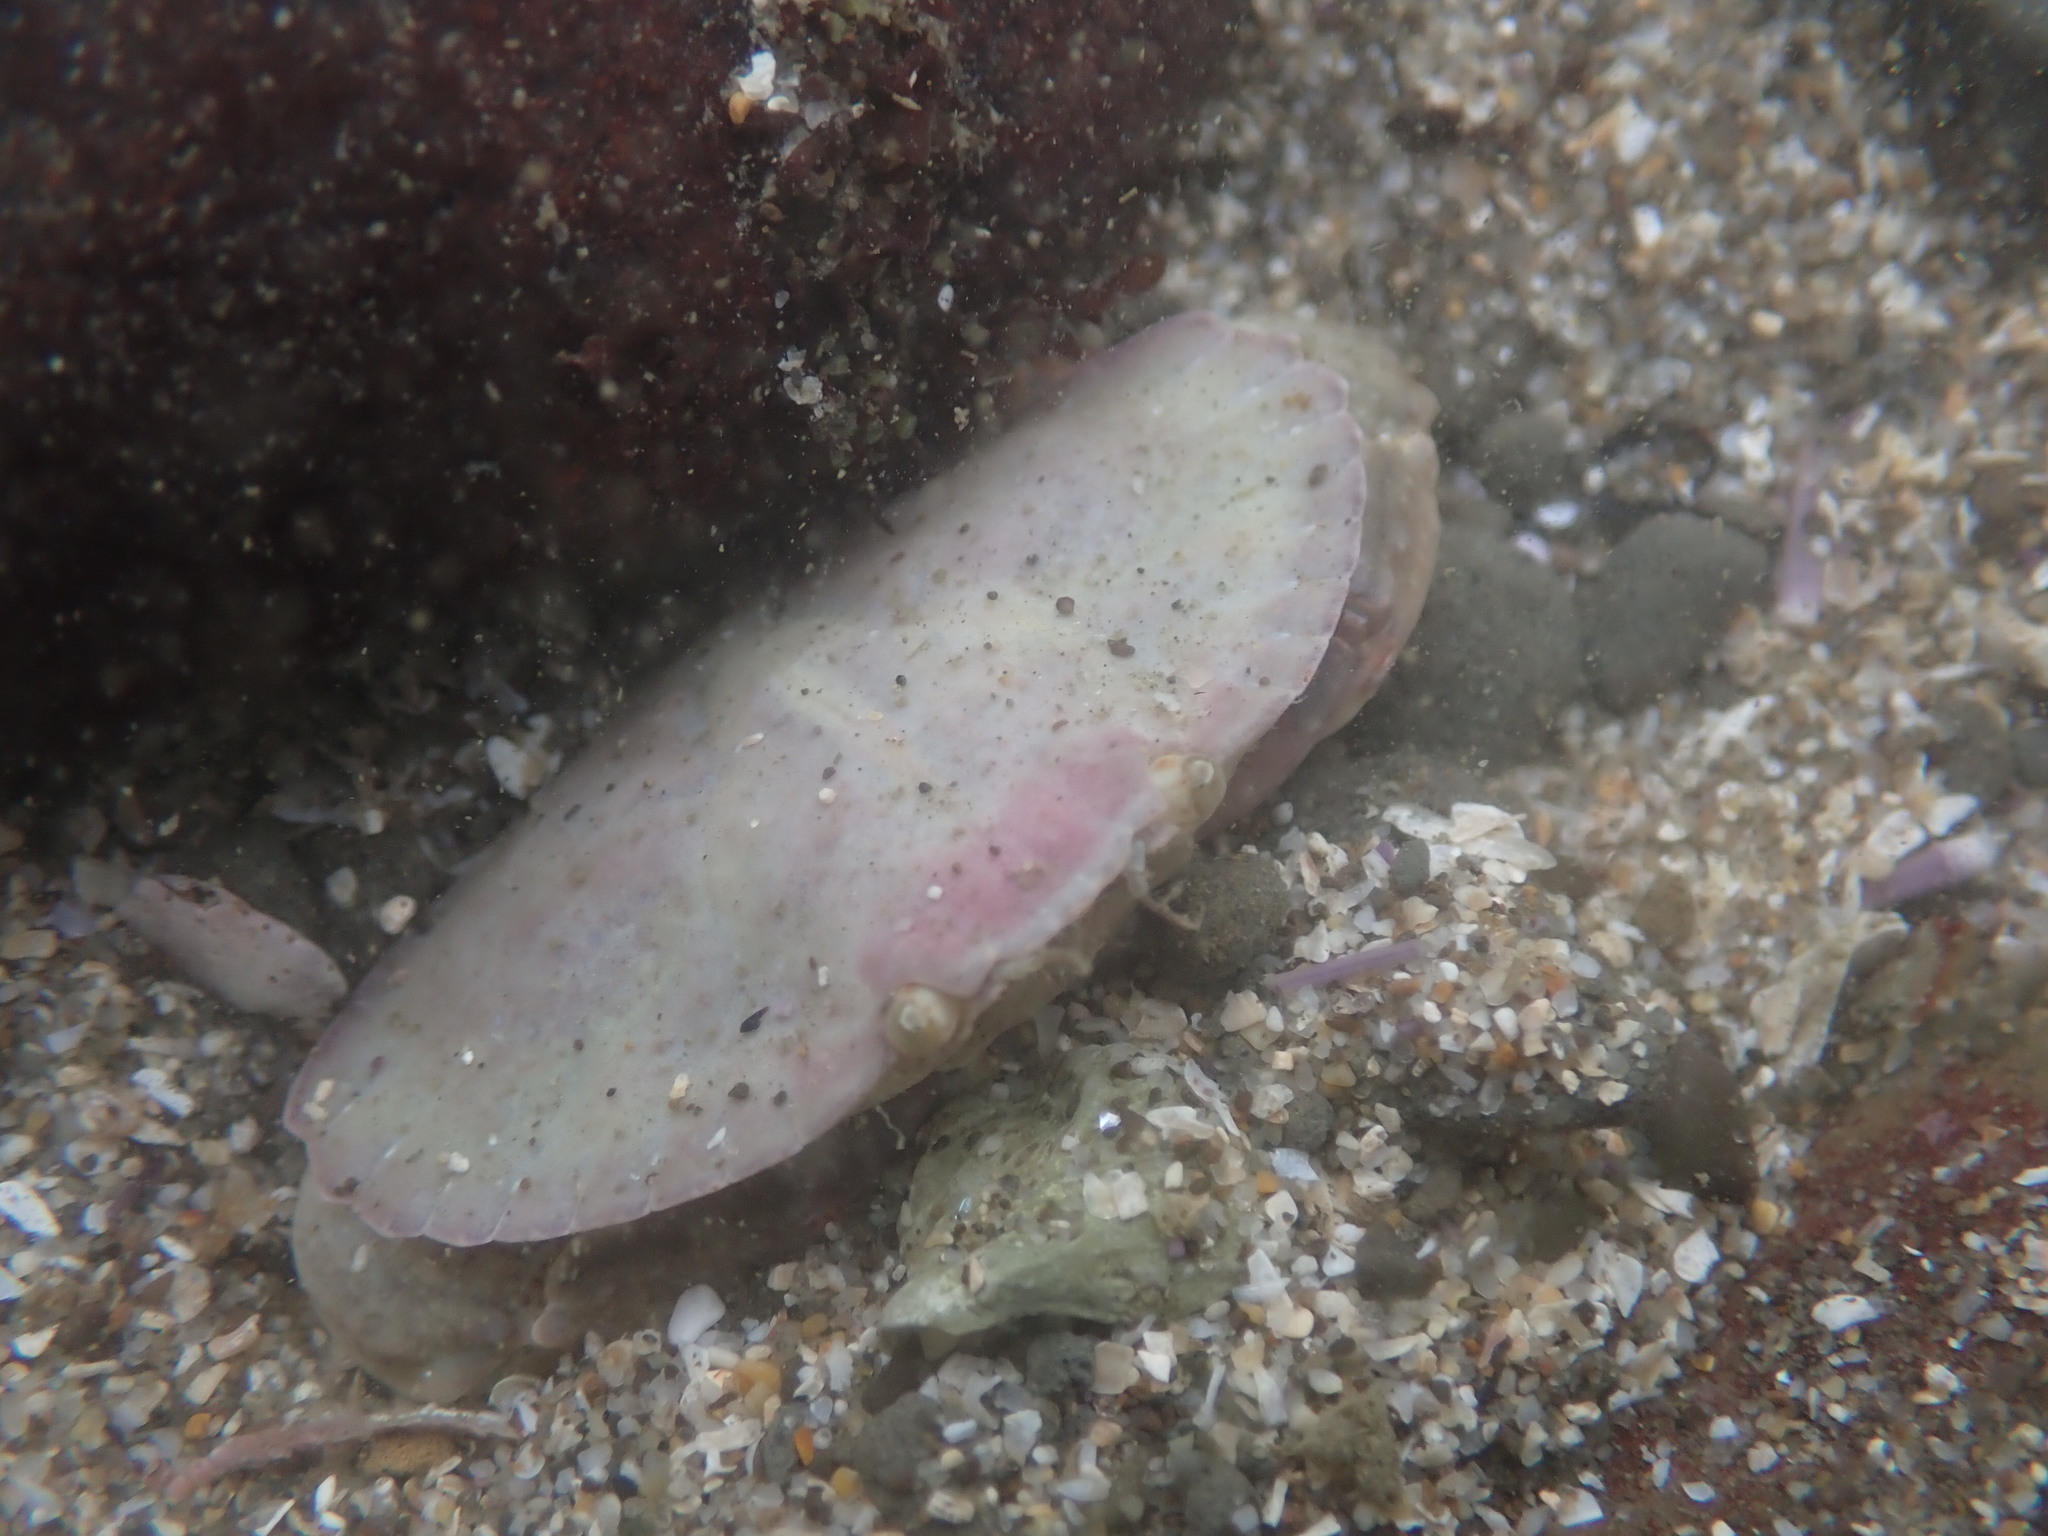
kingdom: Animalia
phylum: Arthropoda
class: Malacostraca
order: Decapoda
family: Cancridae
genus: Cancer
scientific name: Cancer productus
